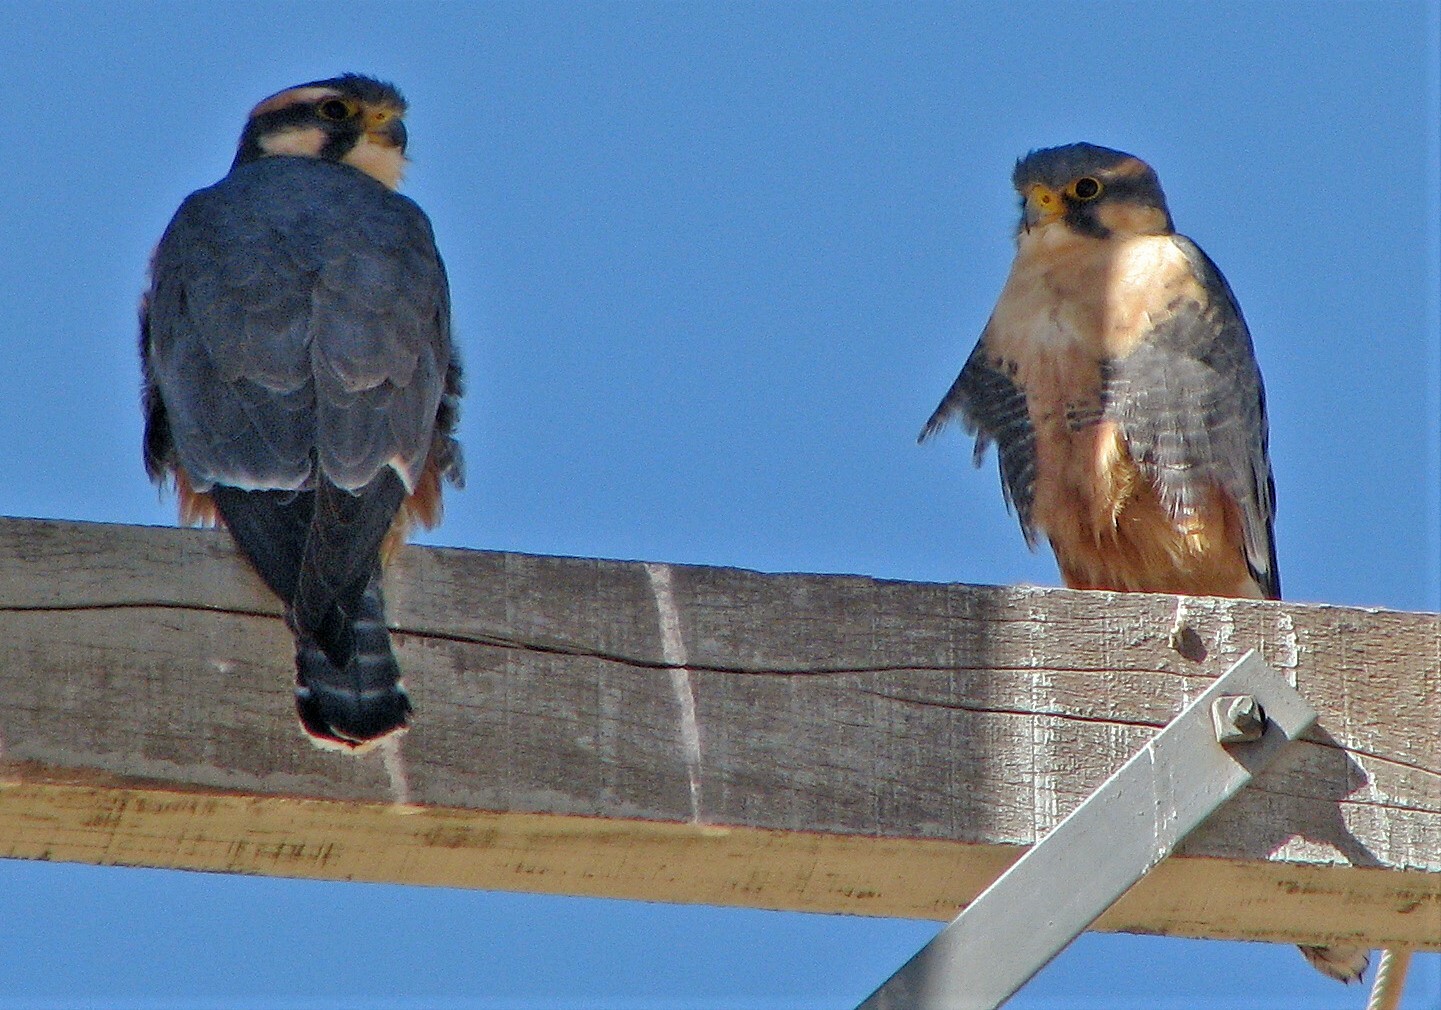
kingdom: Animalia
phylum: Chordata
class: Aves
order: Falconiformes
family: Falconidae
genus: Falco
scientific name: Falco femoralis
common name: Aplomado falcon
